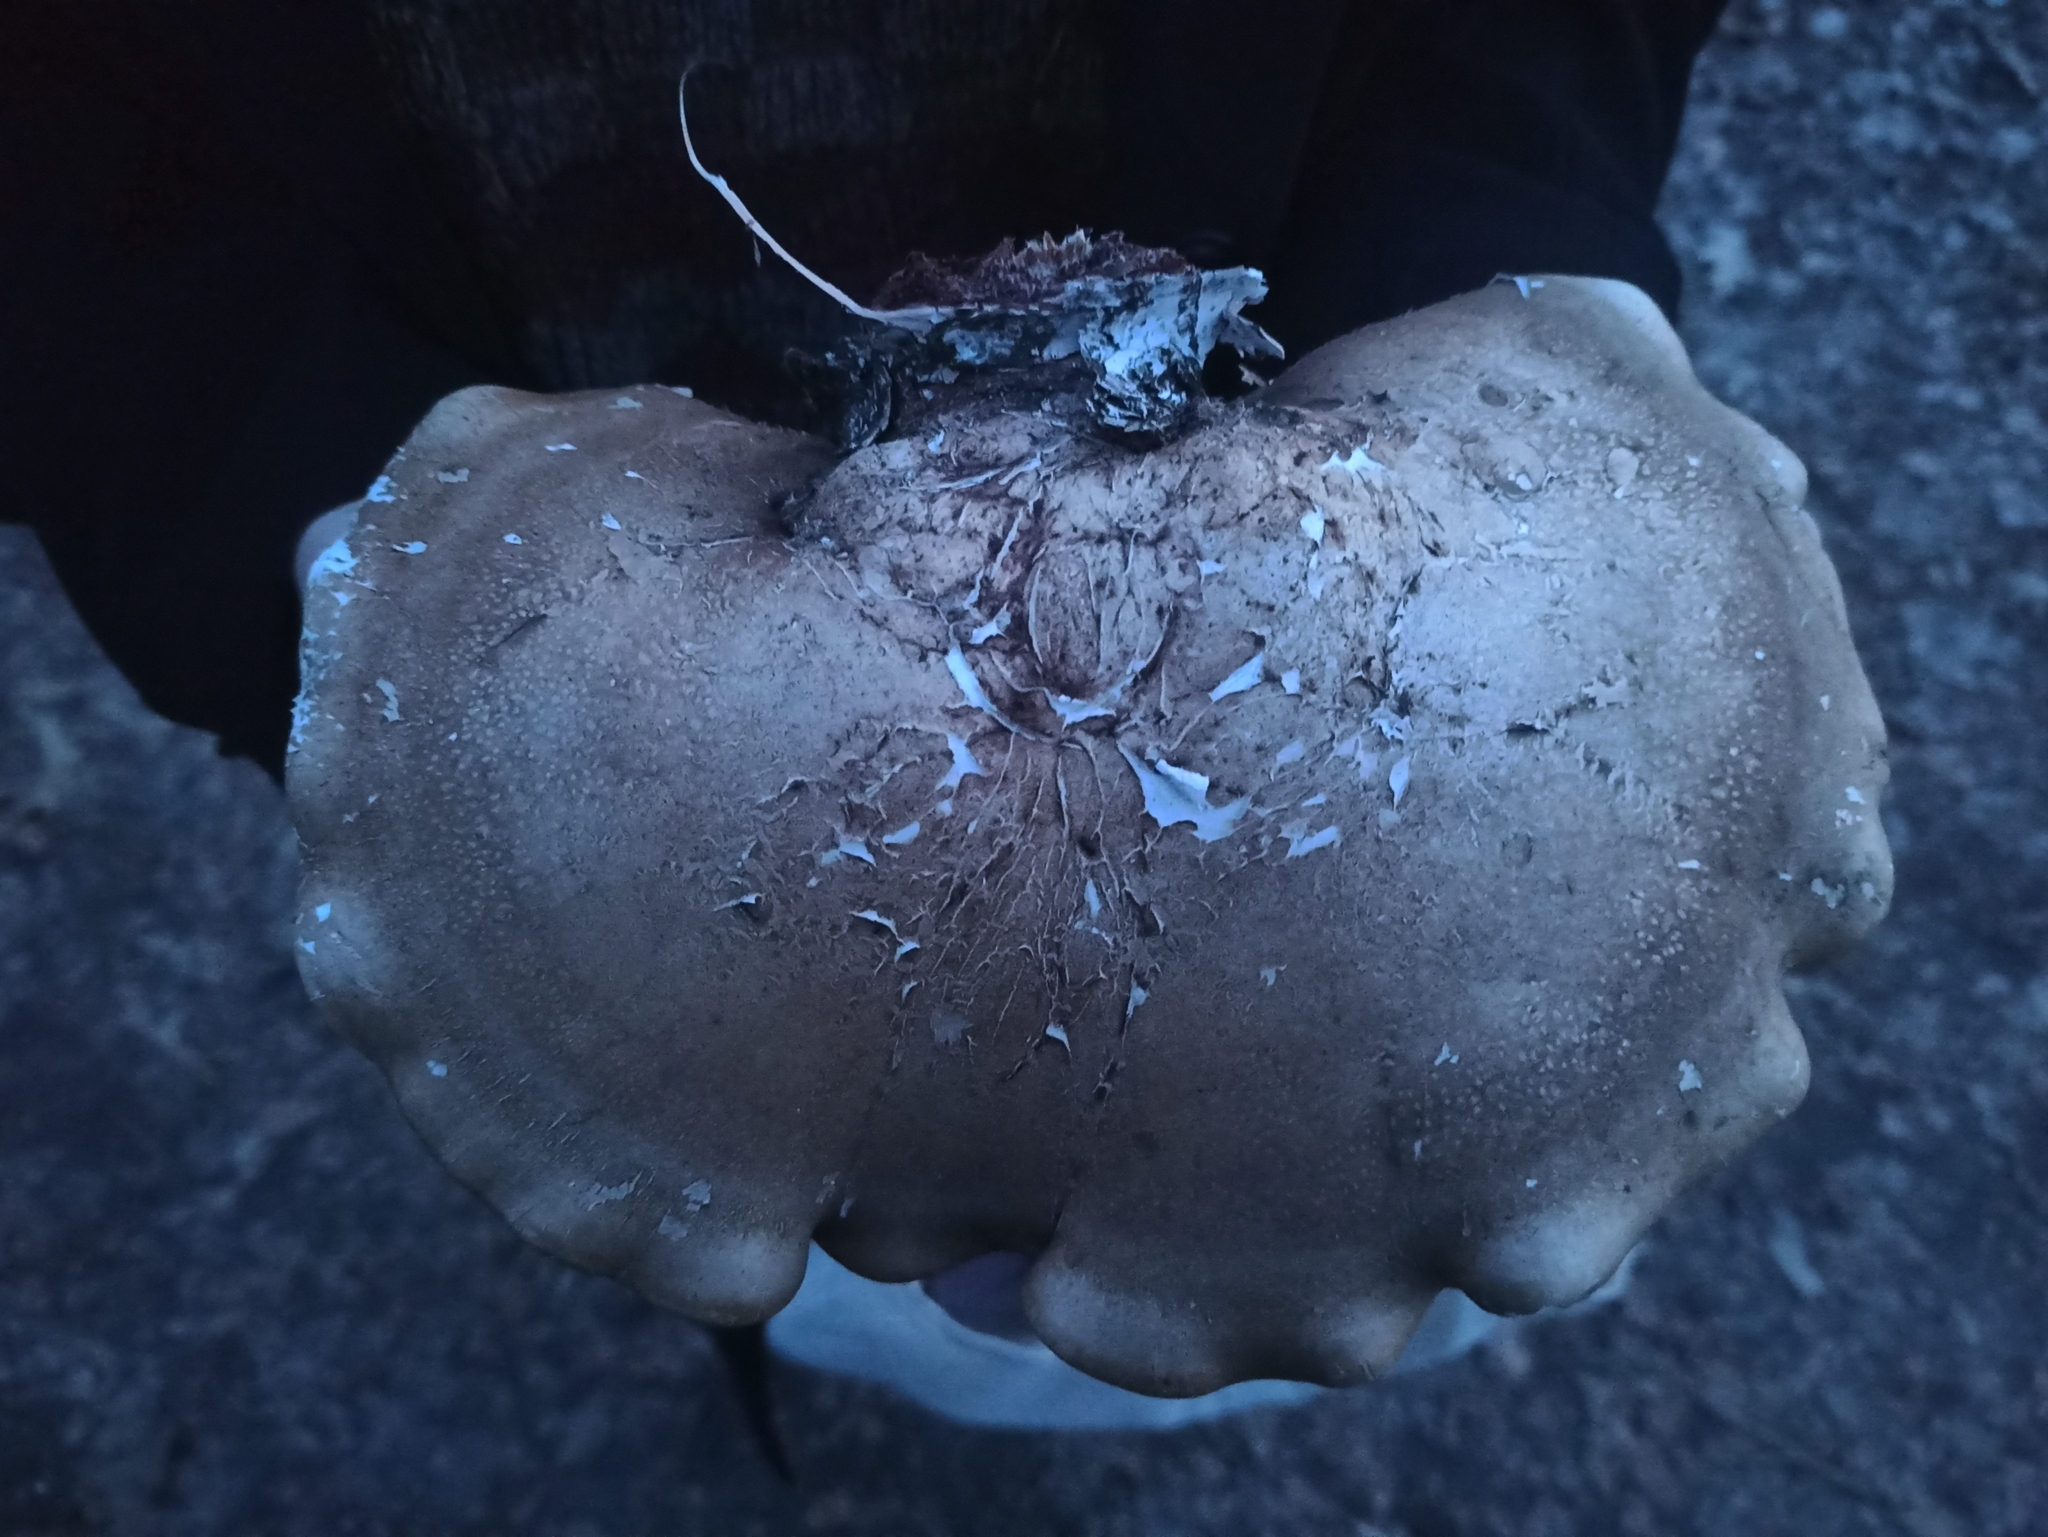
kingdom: Fungi
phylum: Basidiomycota
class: Agaricomycetes
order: Polyporales
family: Fomitopsidaceae
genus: Fomitopsis
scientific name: Fomitopsis betulina
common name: Birch polypore
